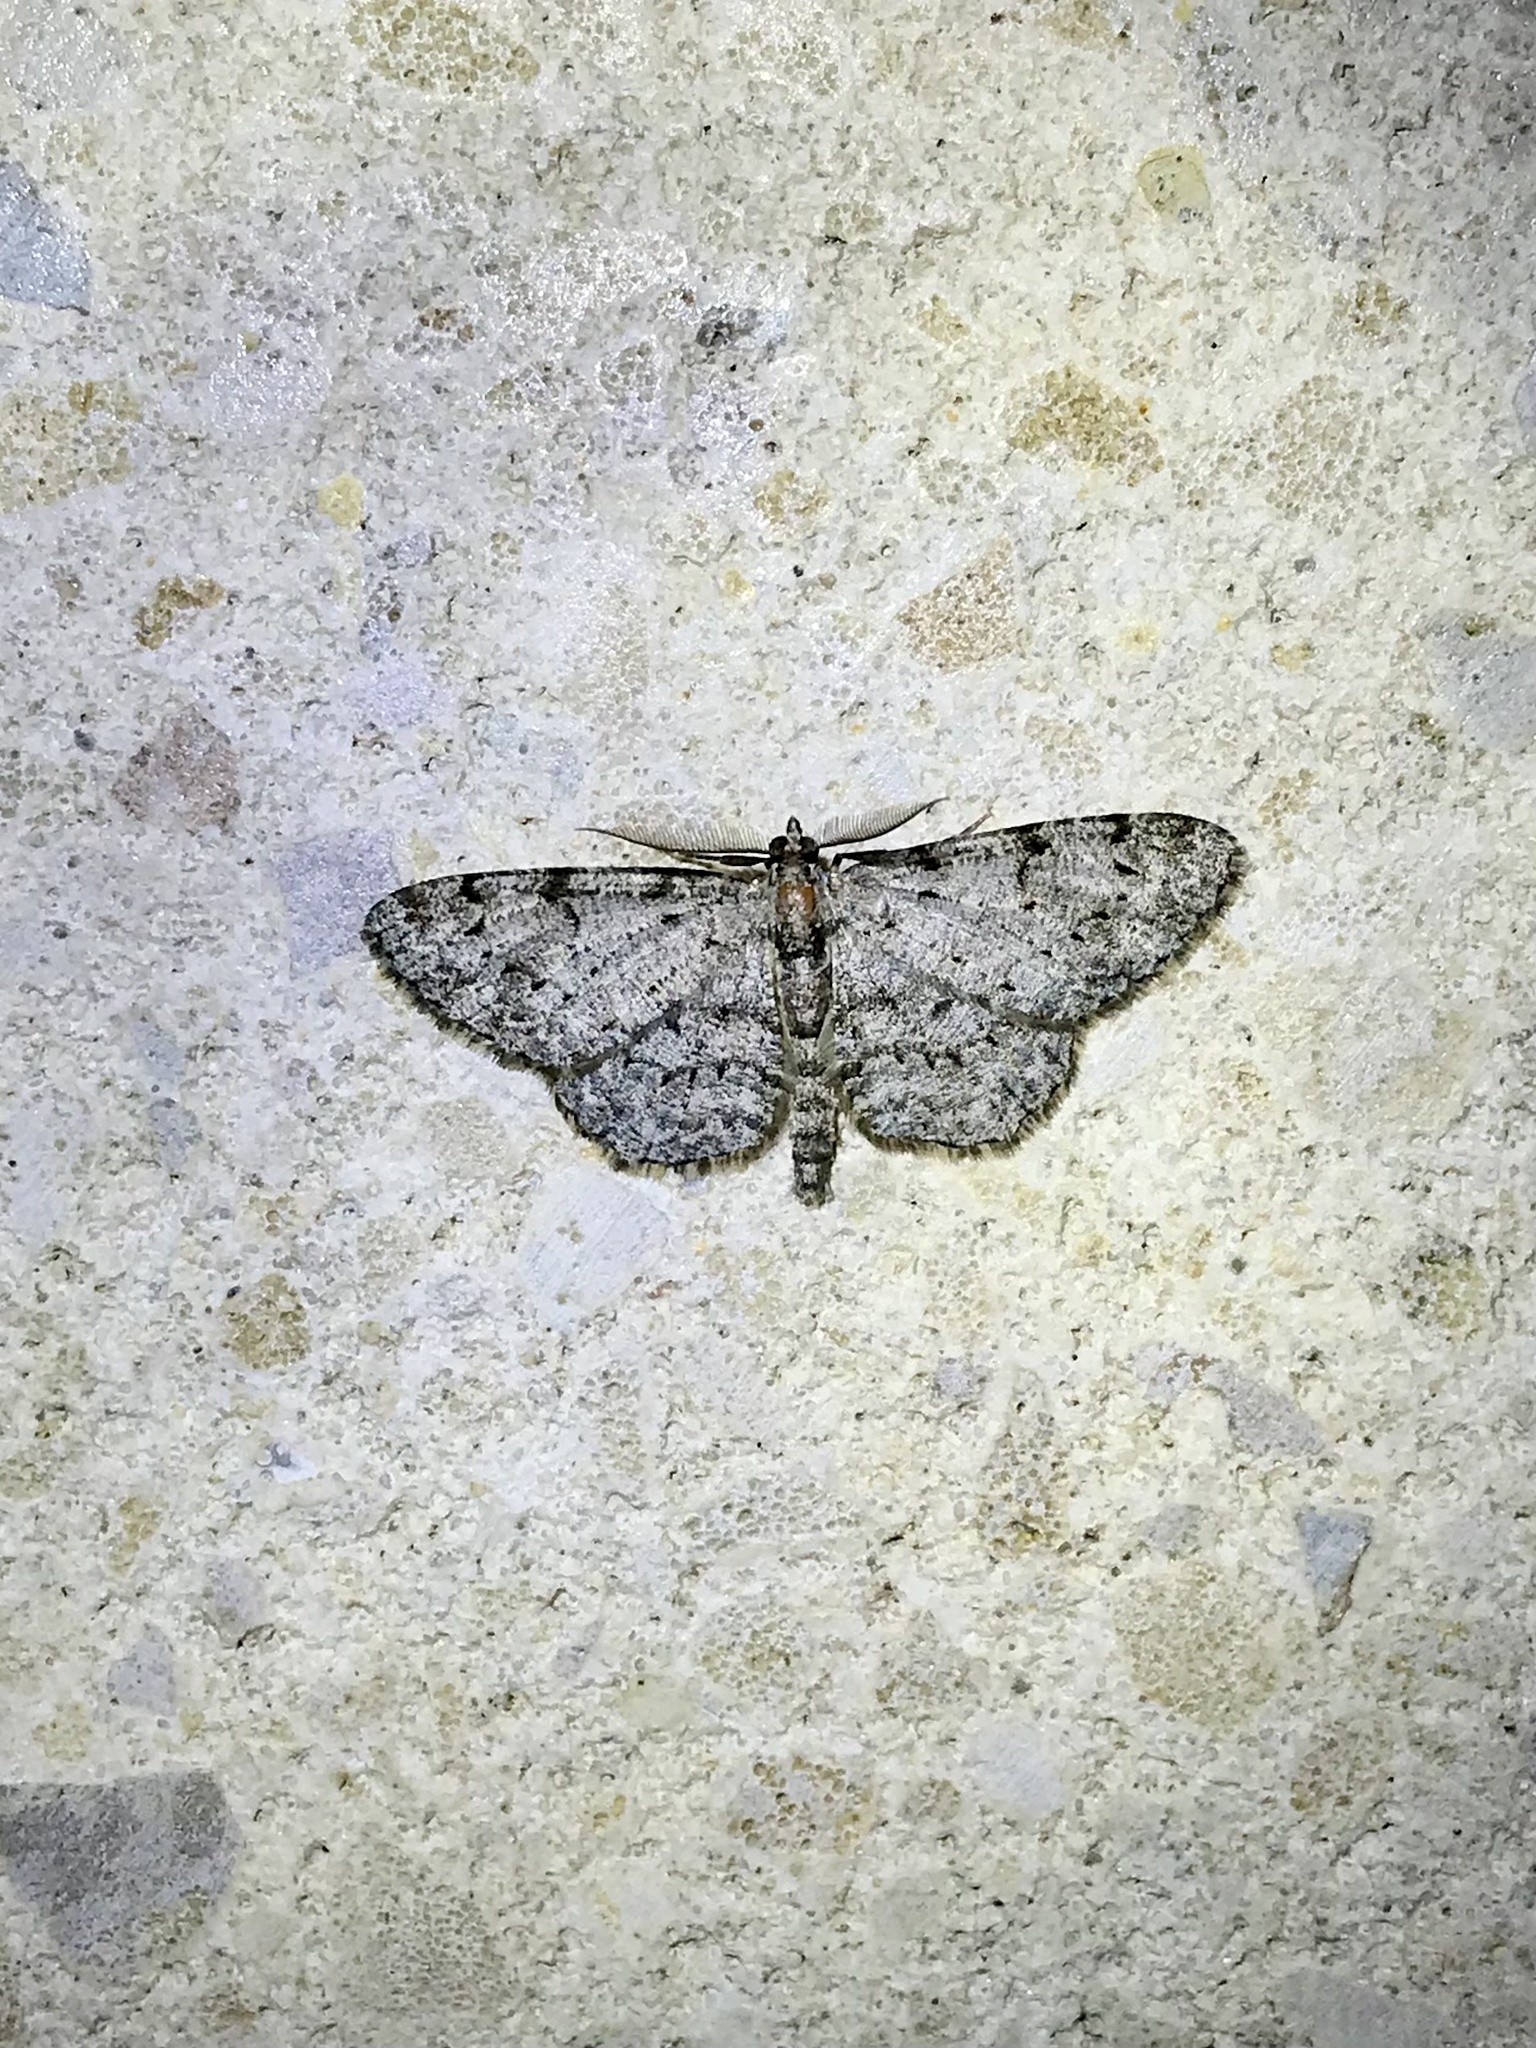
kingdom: Animalia
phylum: Arthropoda
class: Insecta
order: Lepidoptera
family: Geometridae
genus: Protoboarmia
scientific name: Protoboarmia porcelaria
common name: Porcelain gray
